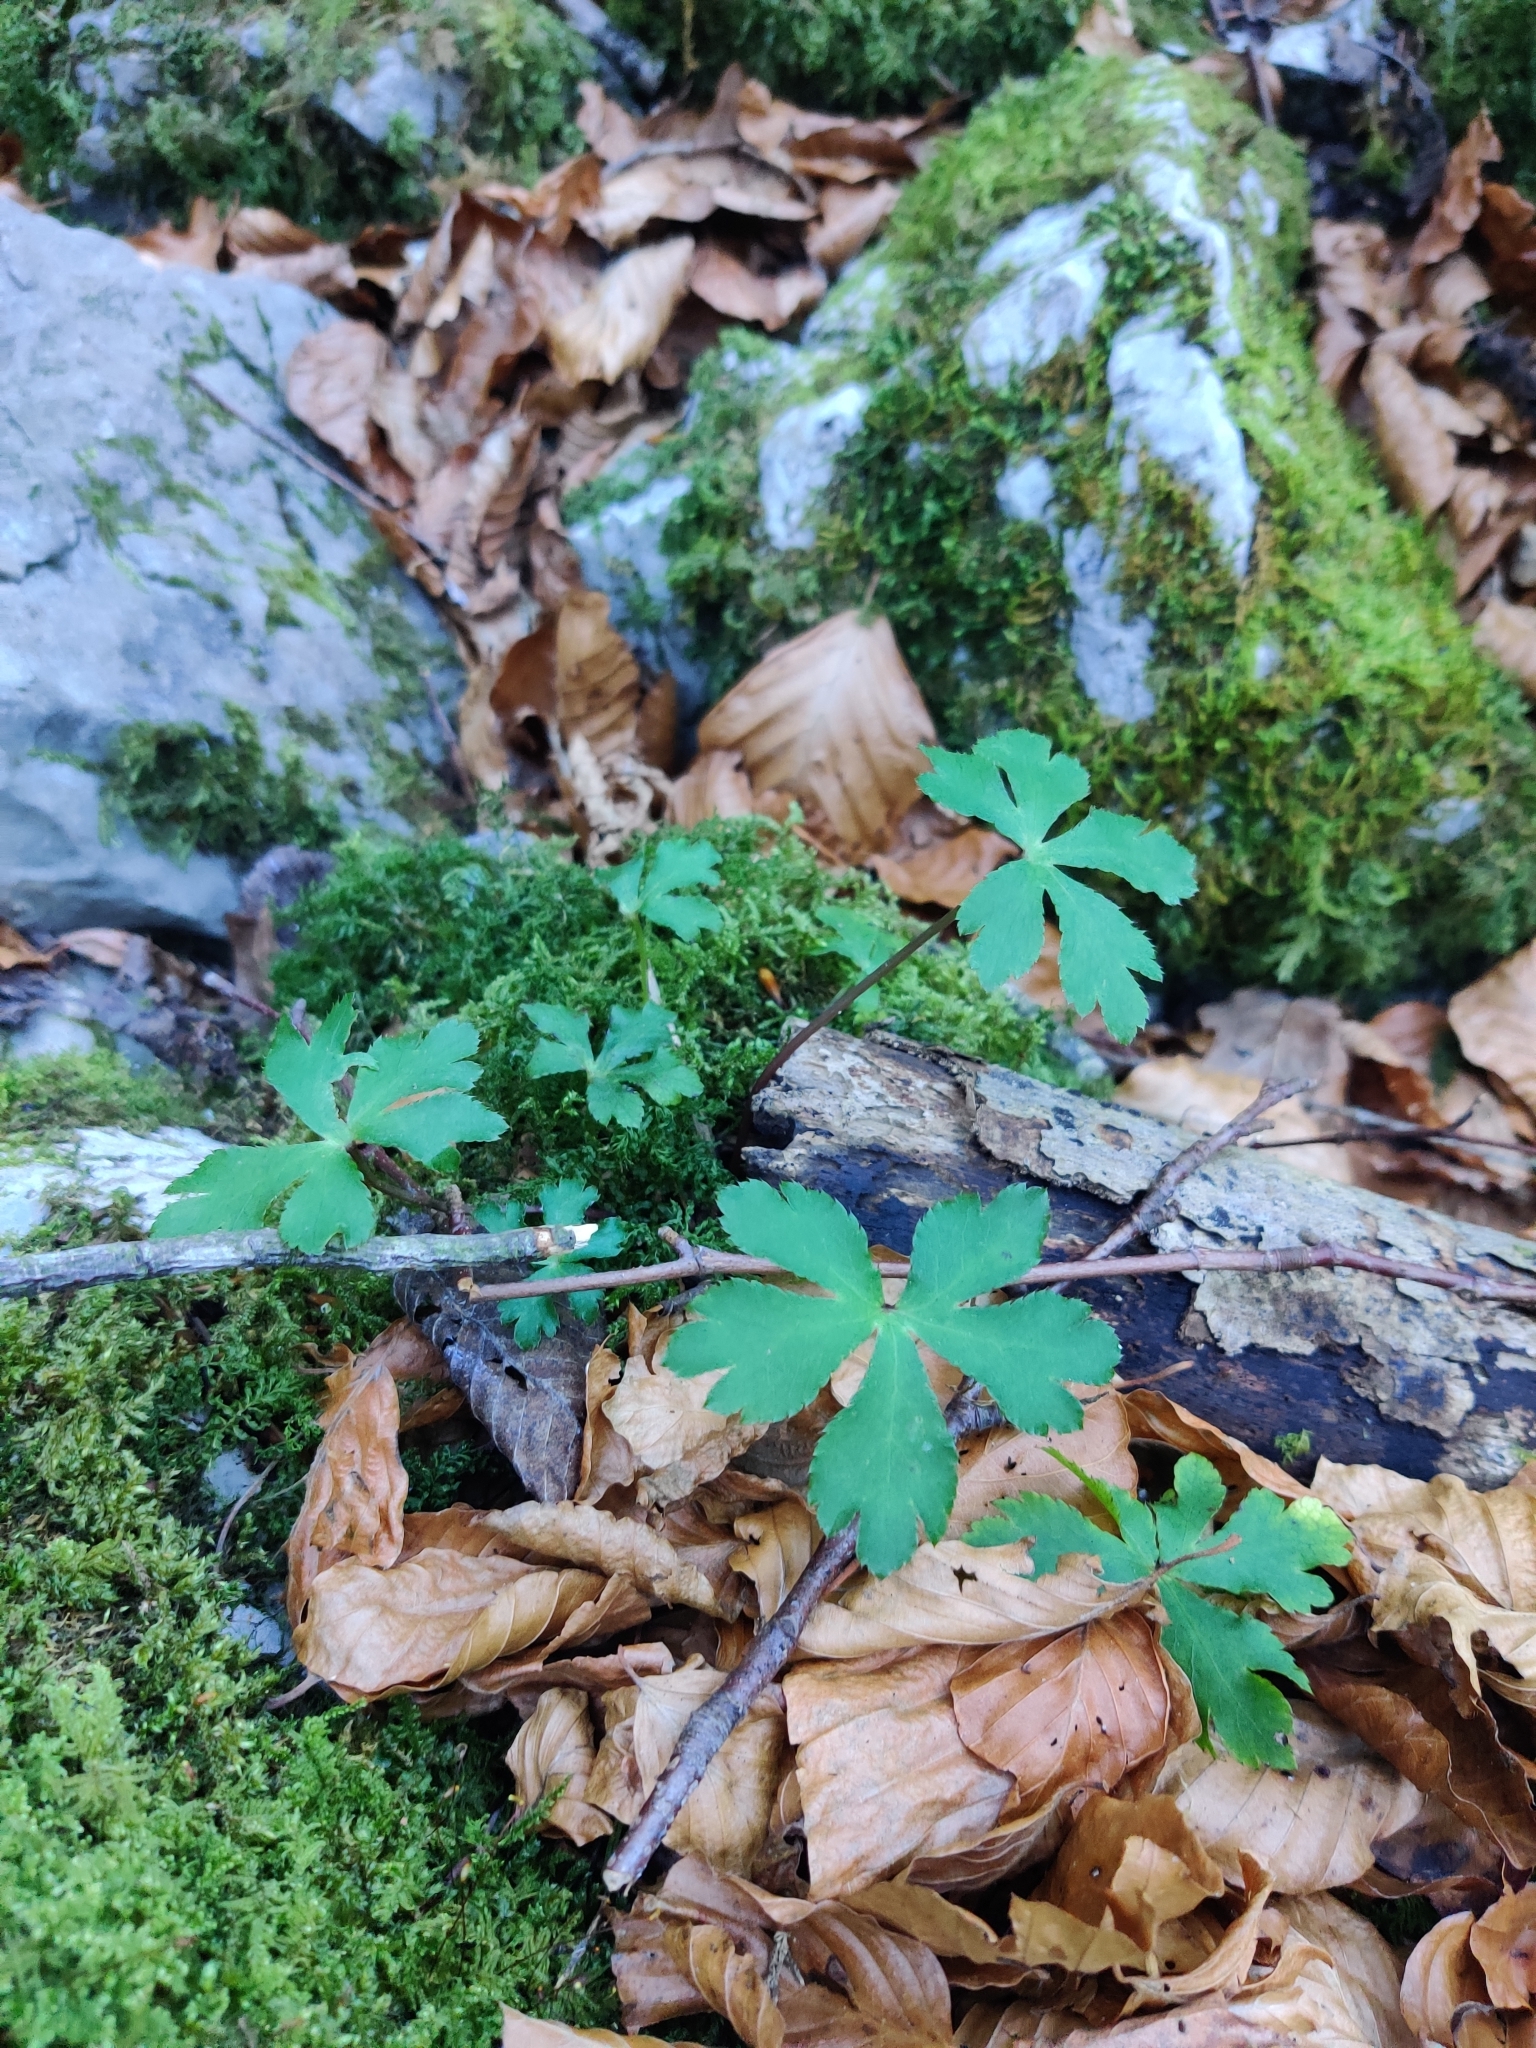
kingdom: Plantae
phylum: Tracheophyta
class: Magnoliopsida
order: Apiales
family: Apiaceae
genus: Sanicula
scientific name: Sanicula europaea
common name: Sanicle
